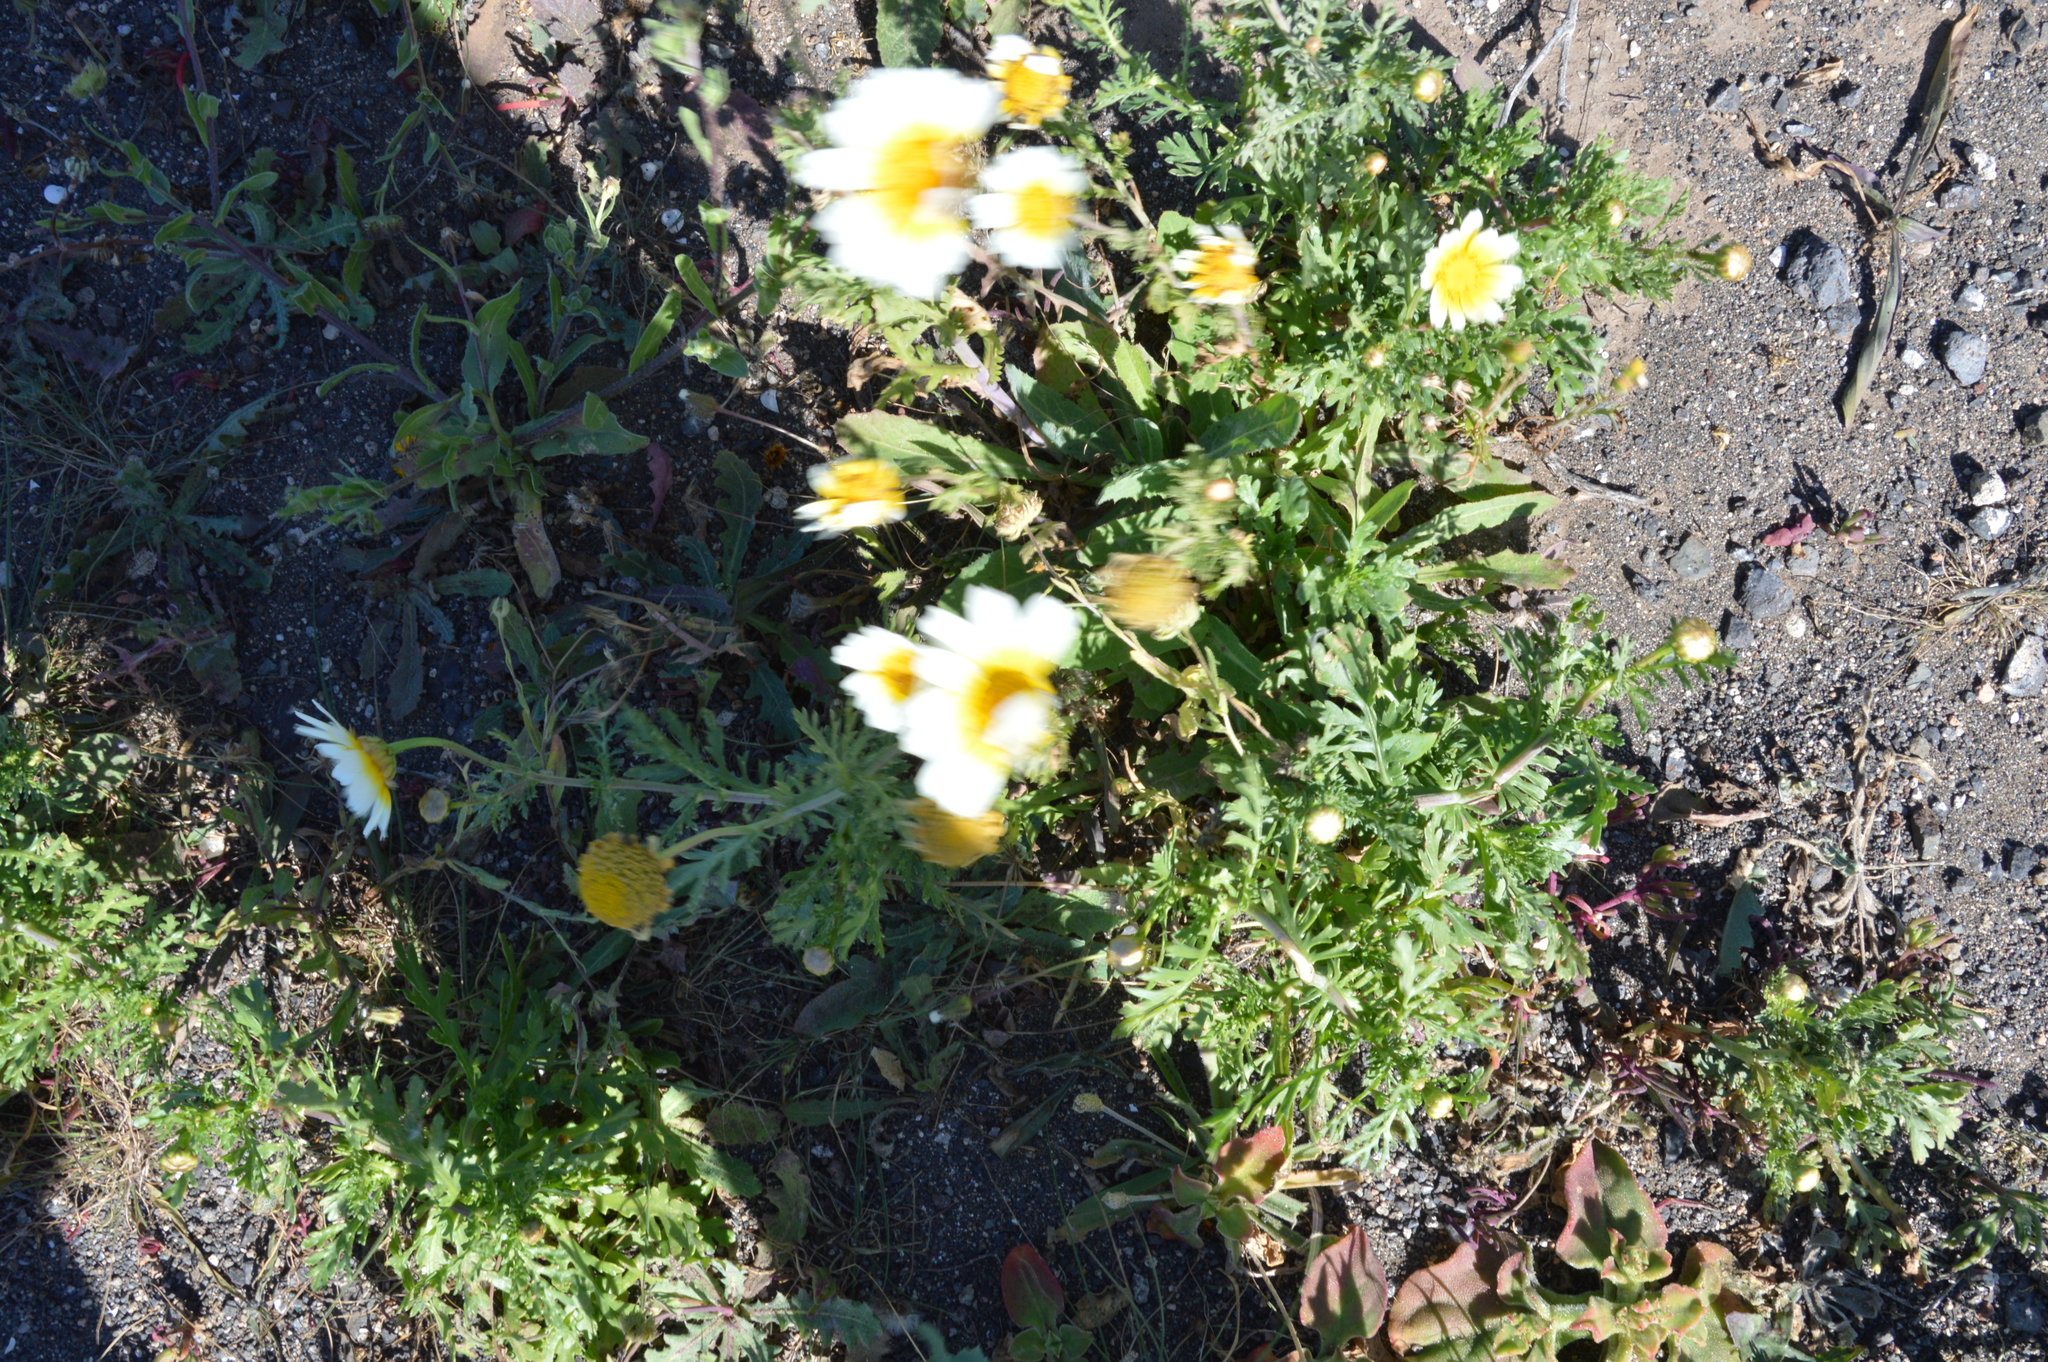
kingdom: Plantae
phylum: Tracheophyta
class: Magnoliopsida
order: Asterales
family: Asteraceae
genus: Glebionis
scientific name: Glebionis coronaria
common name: Crowndaisy
